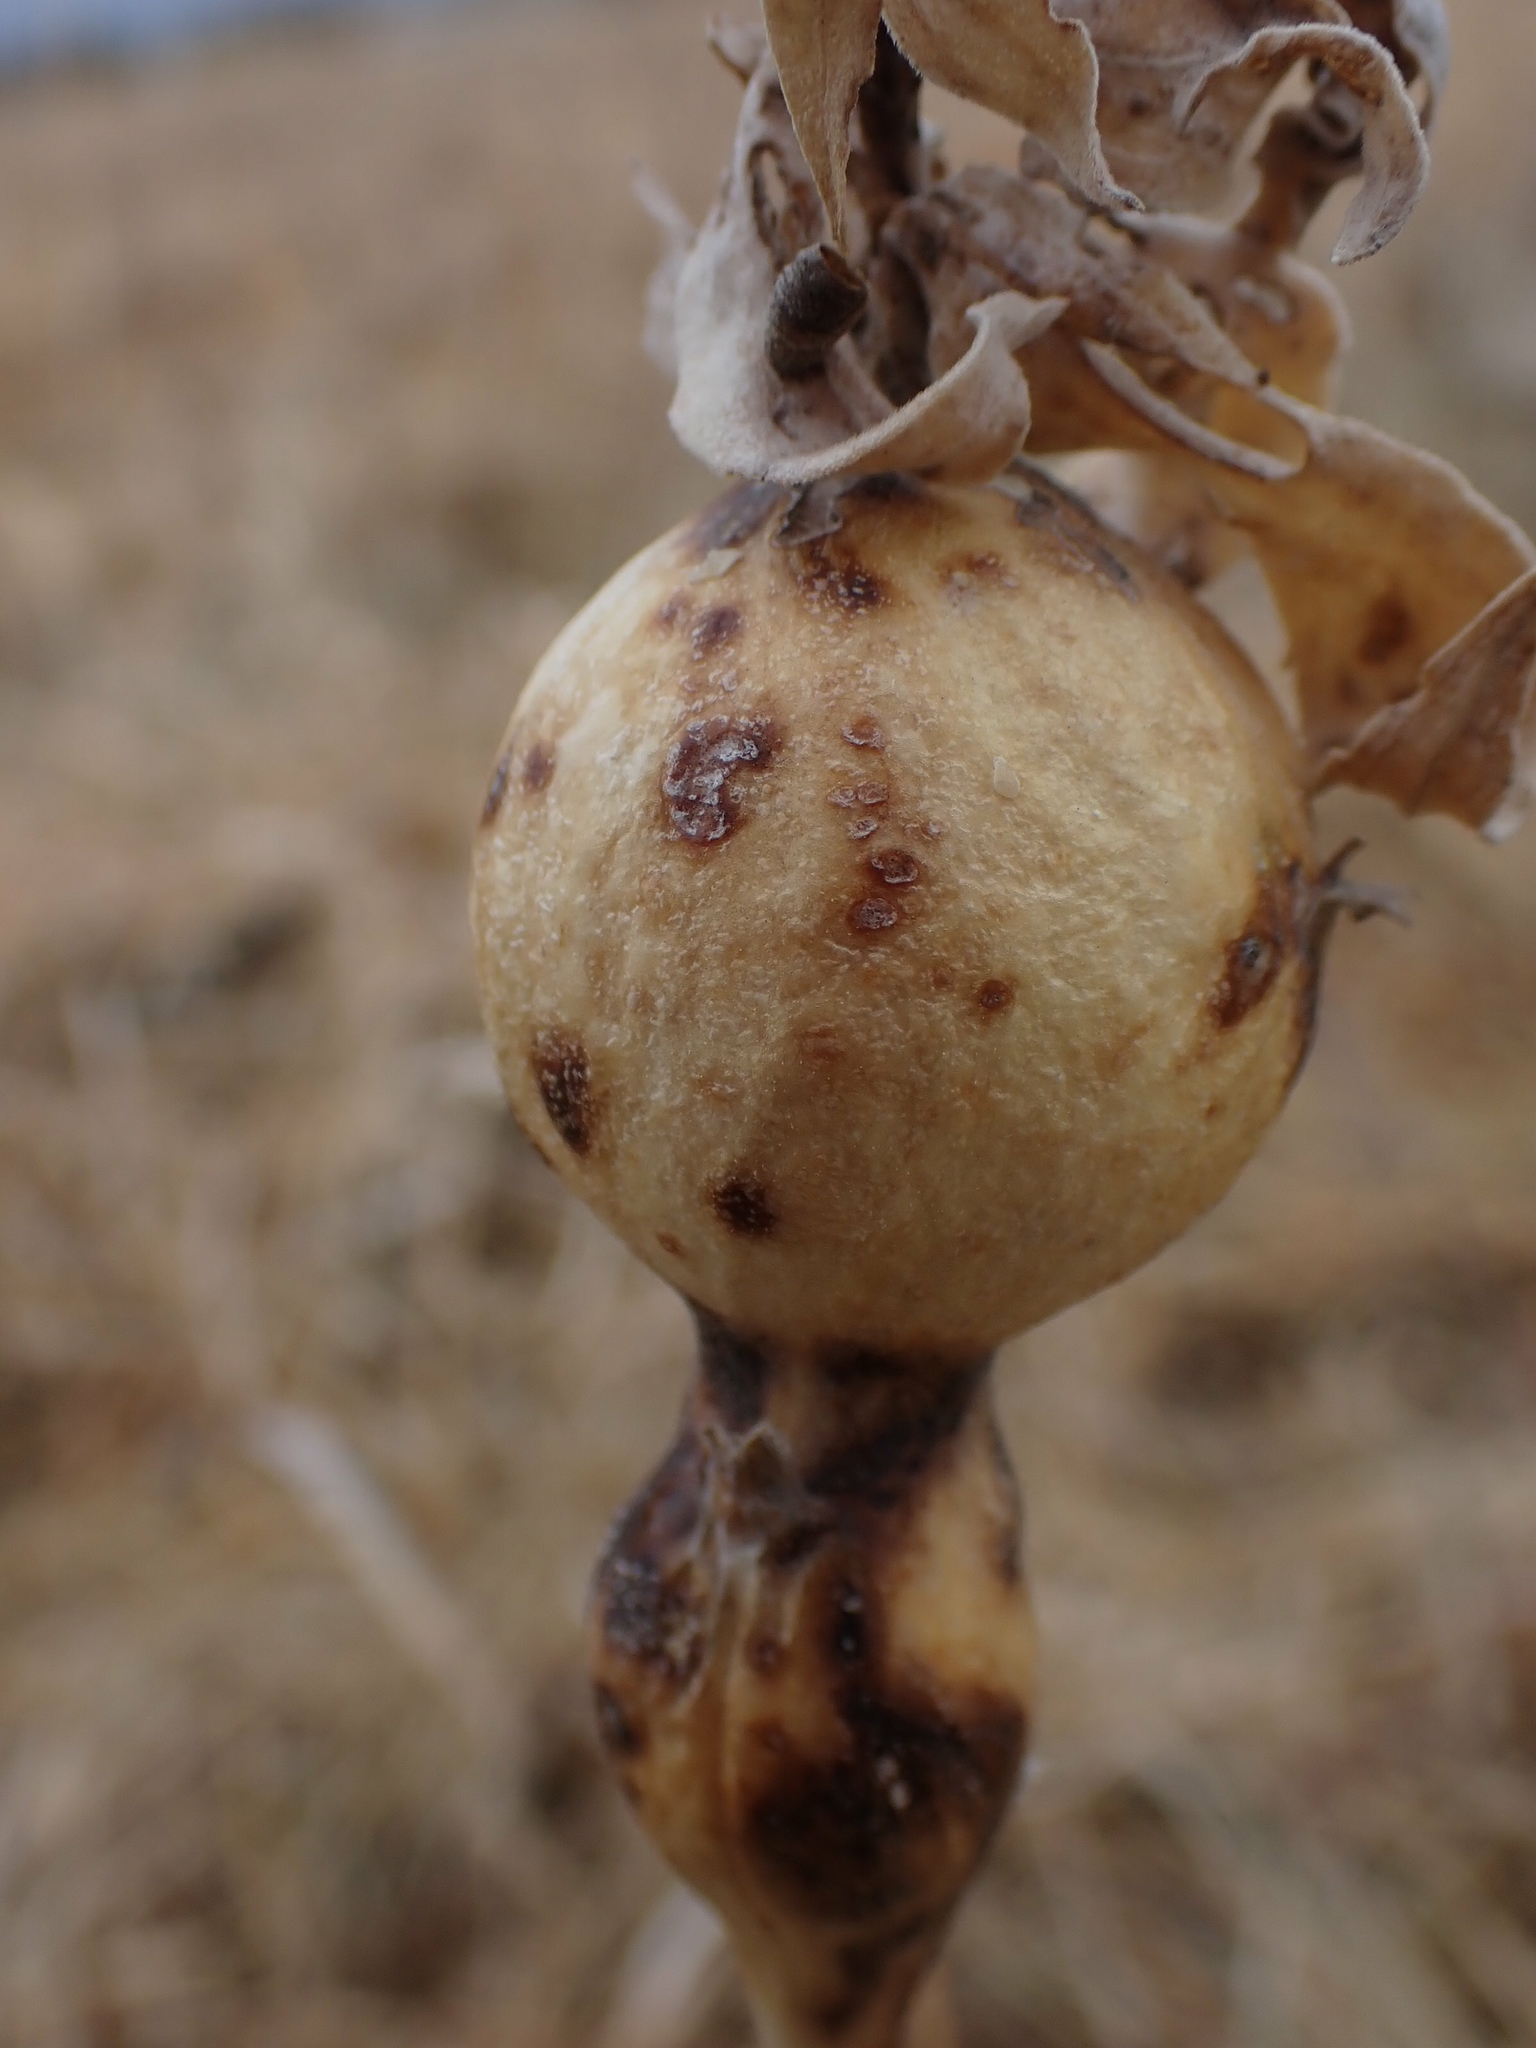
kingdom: Animalia
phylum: Arthropoda
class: Insecta
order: Diptera
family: Tephritidae
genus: Eurosta
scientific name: Eurosta solidaginis
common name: Goldenrod gall fly
